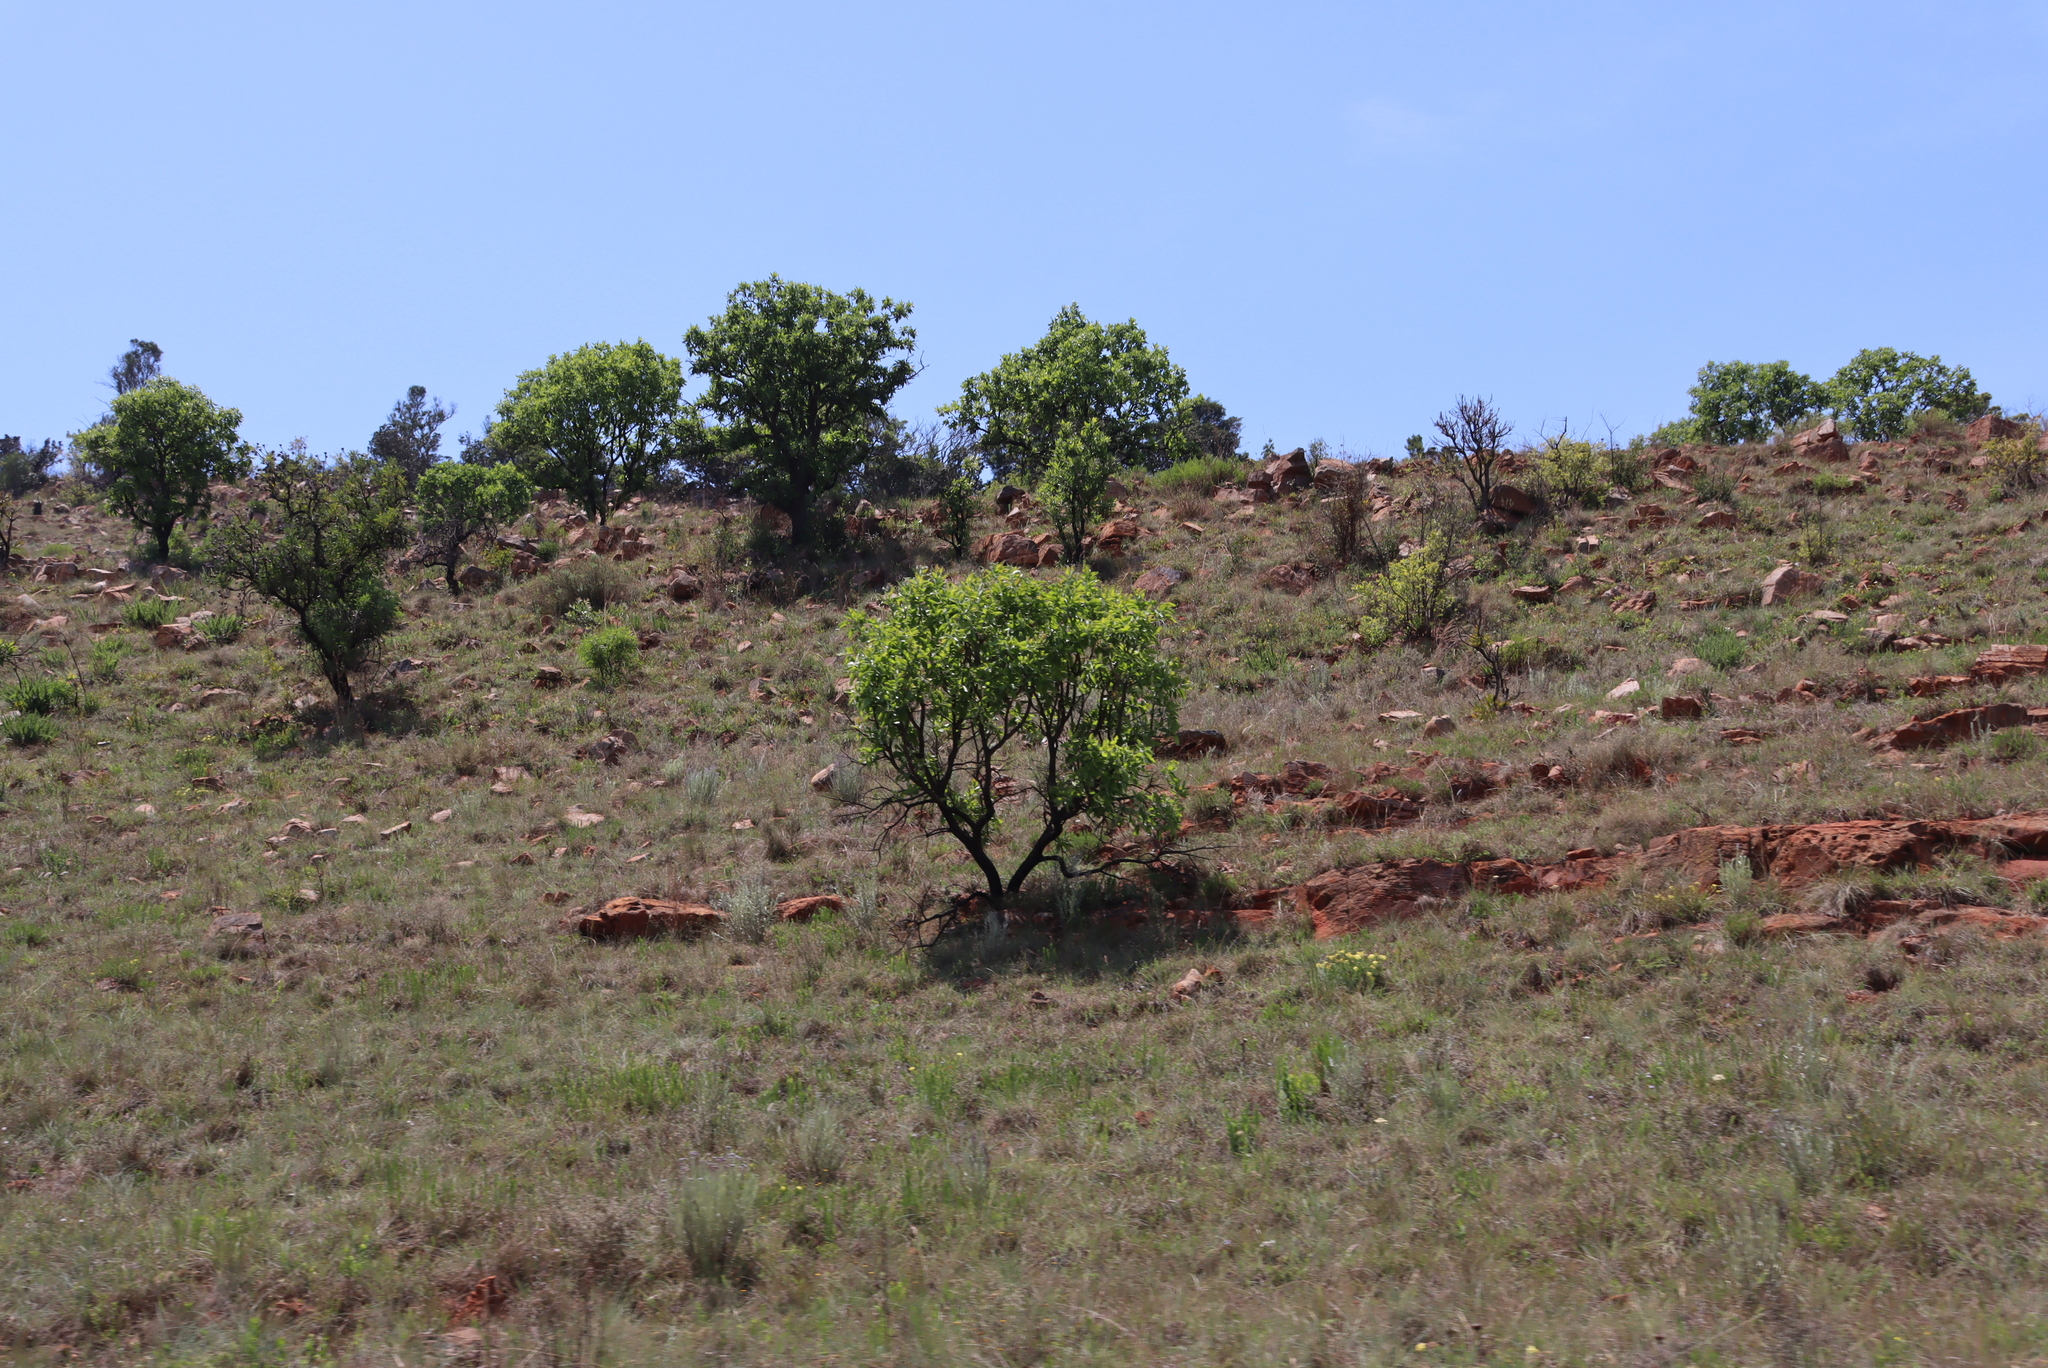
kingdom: Plantae
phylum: Tracheophyta
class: Magnoliopsida
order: Proteales
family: Proteaceae
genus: Faurea
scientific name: Faurea rochetiana
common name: Broad-leaved beech
